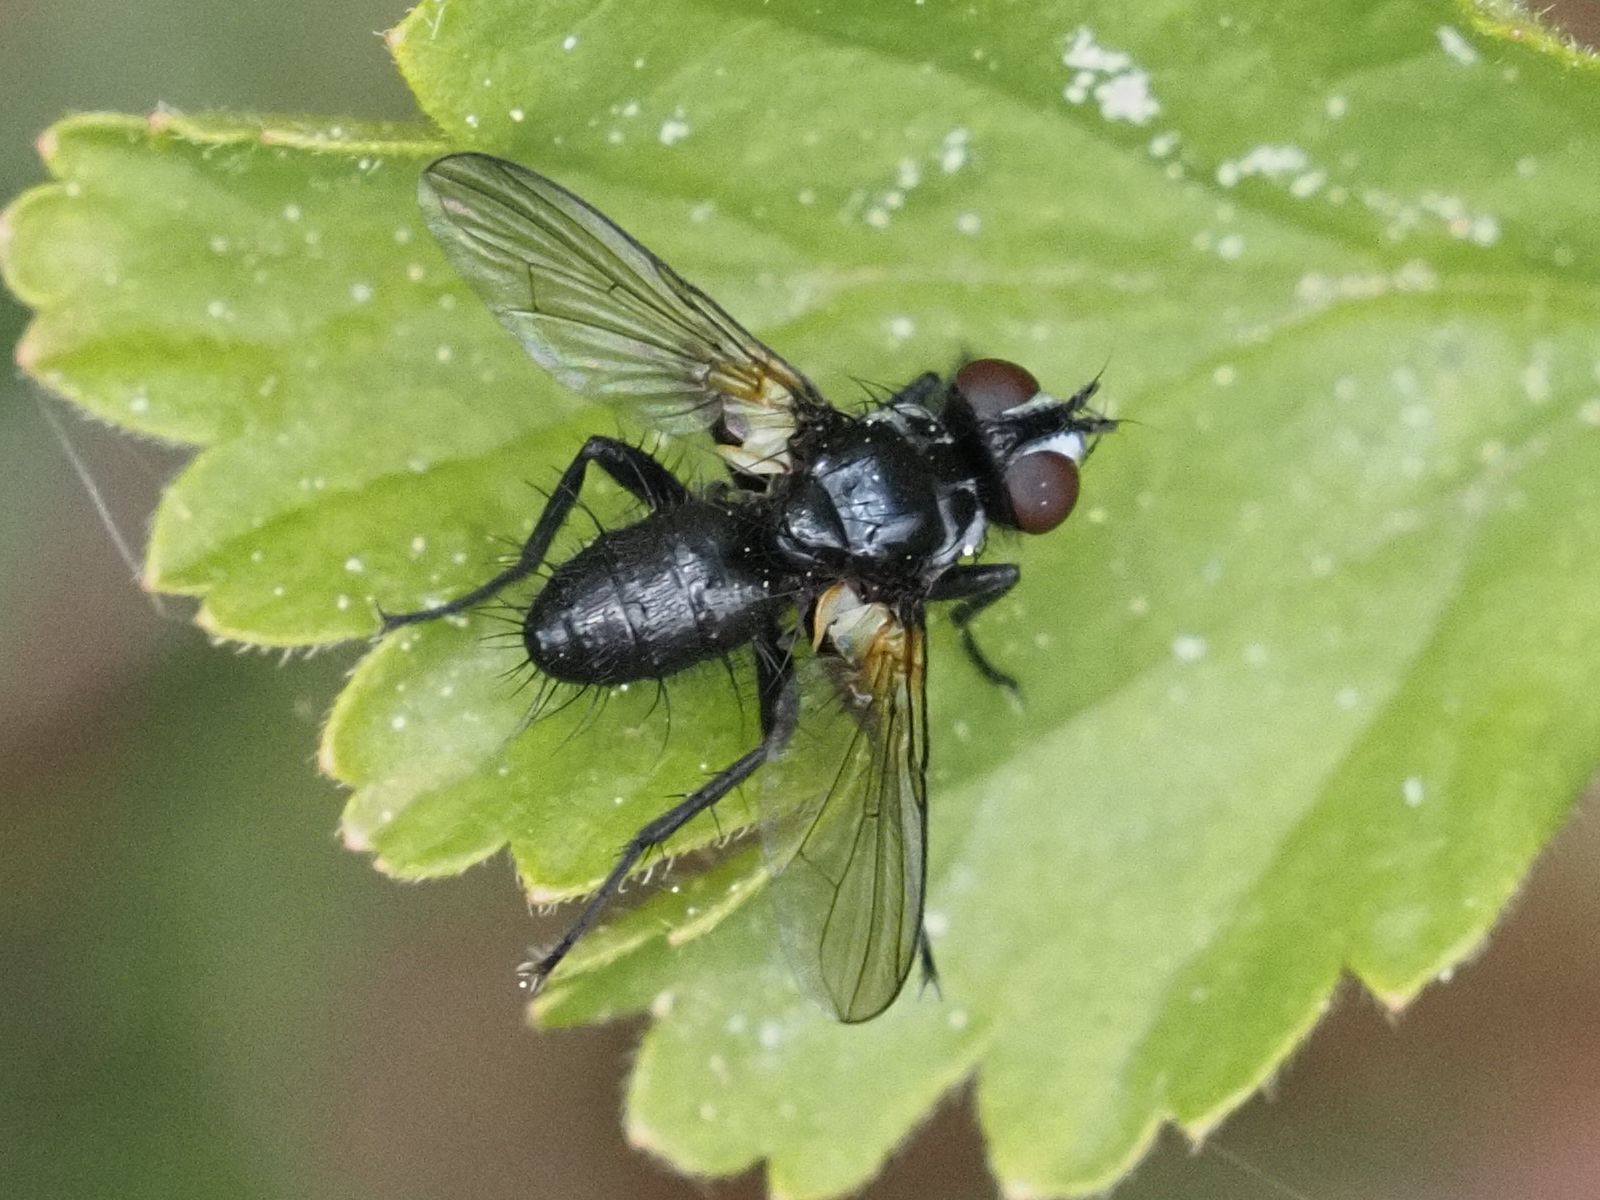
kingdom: Animalia
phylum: Arthropoda
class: Insecta
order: Diptera
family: Tachinidae
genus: Phania
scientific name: Phania funesta
